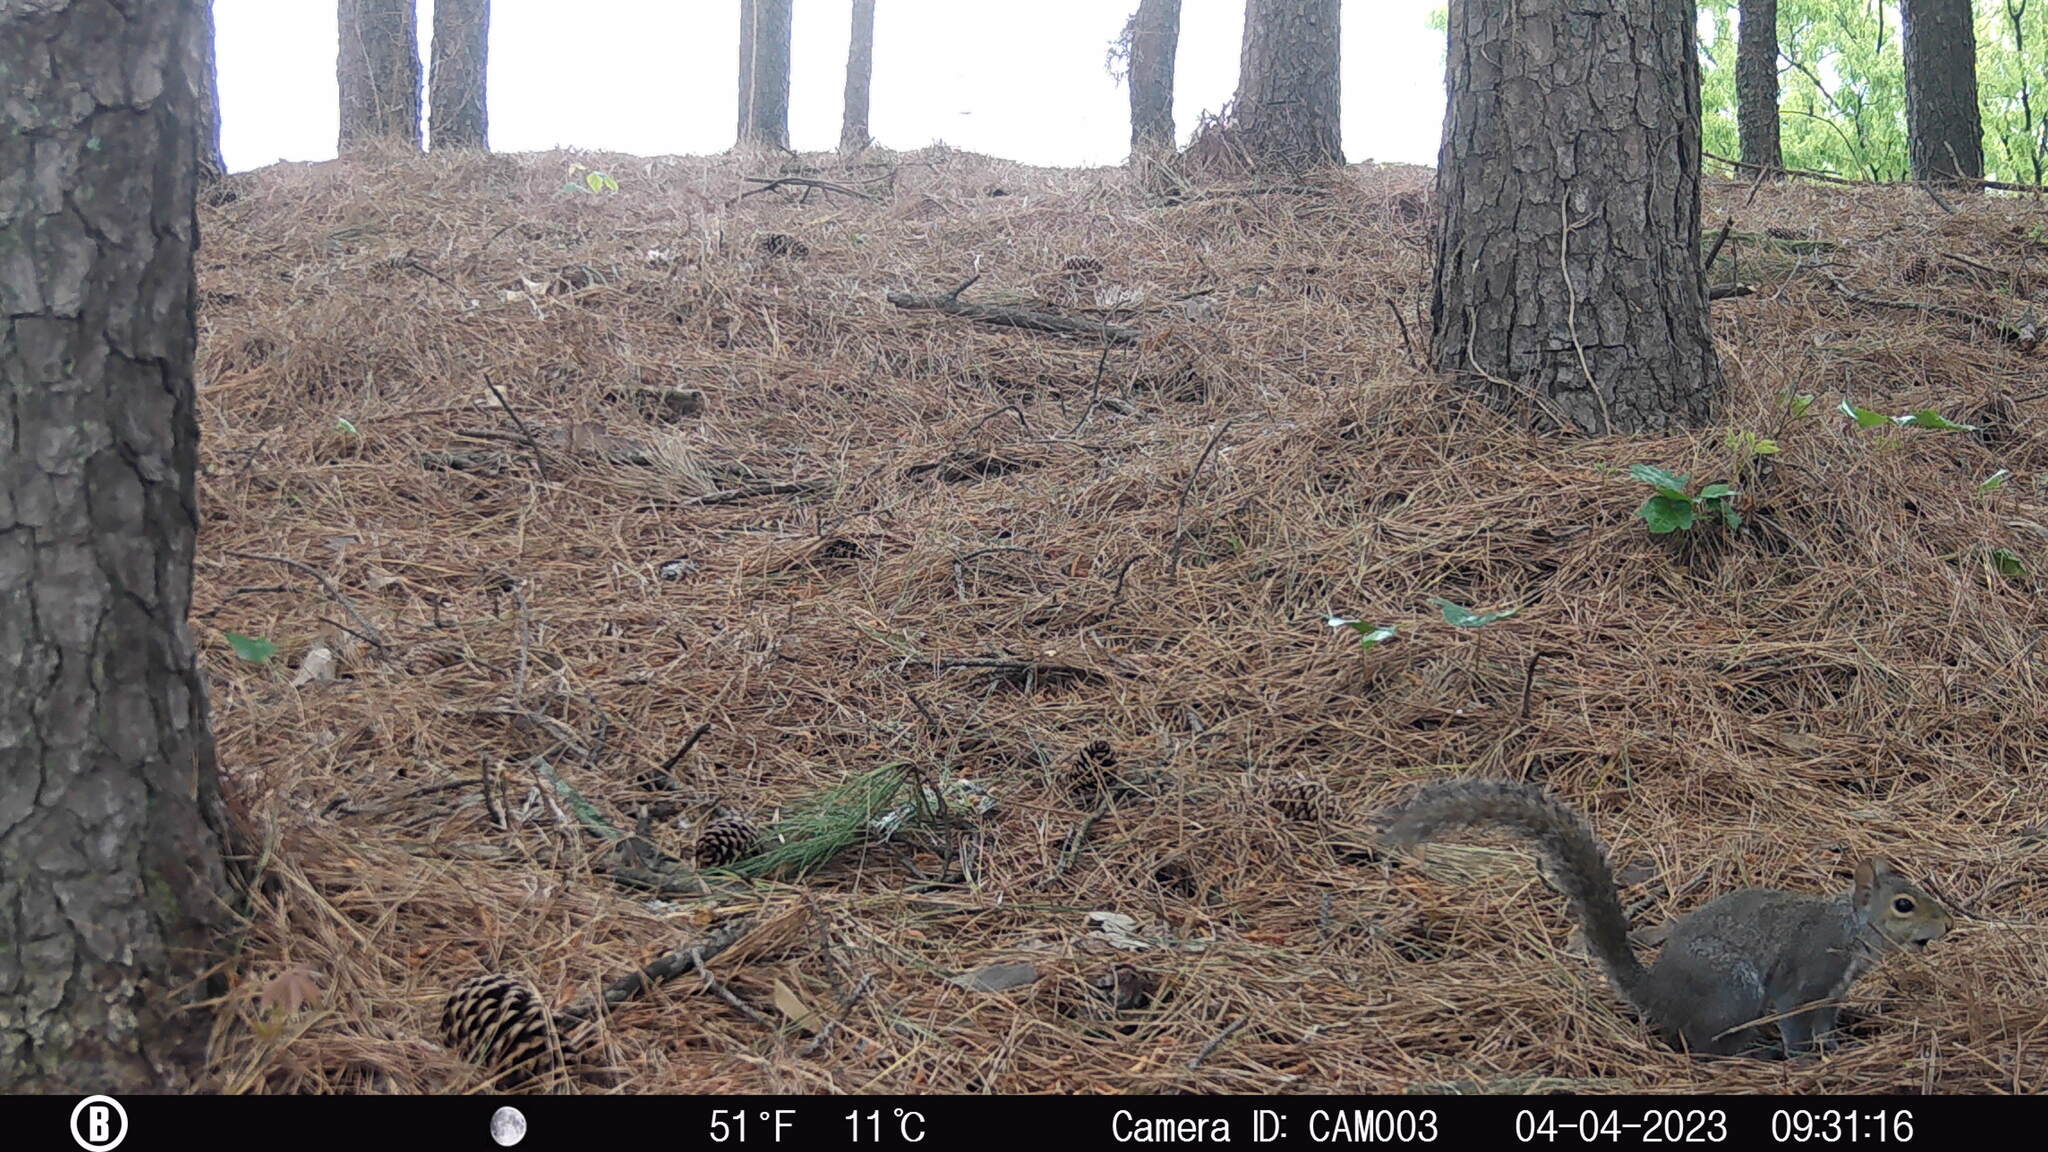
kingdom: Animalia
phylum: Chordata
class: Mammalia
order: Rodentia
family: Sciuridae
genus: Sciurus
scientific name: Sciurus carolinensis
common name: Eastern gray squirrel
